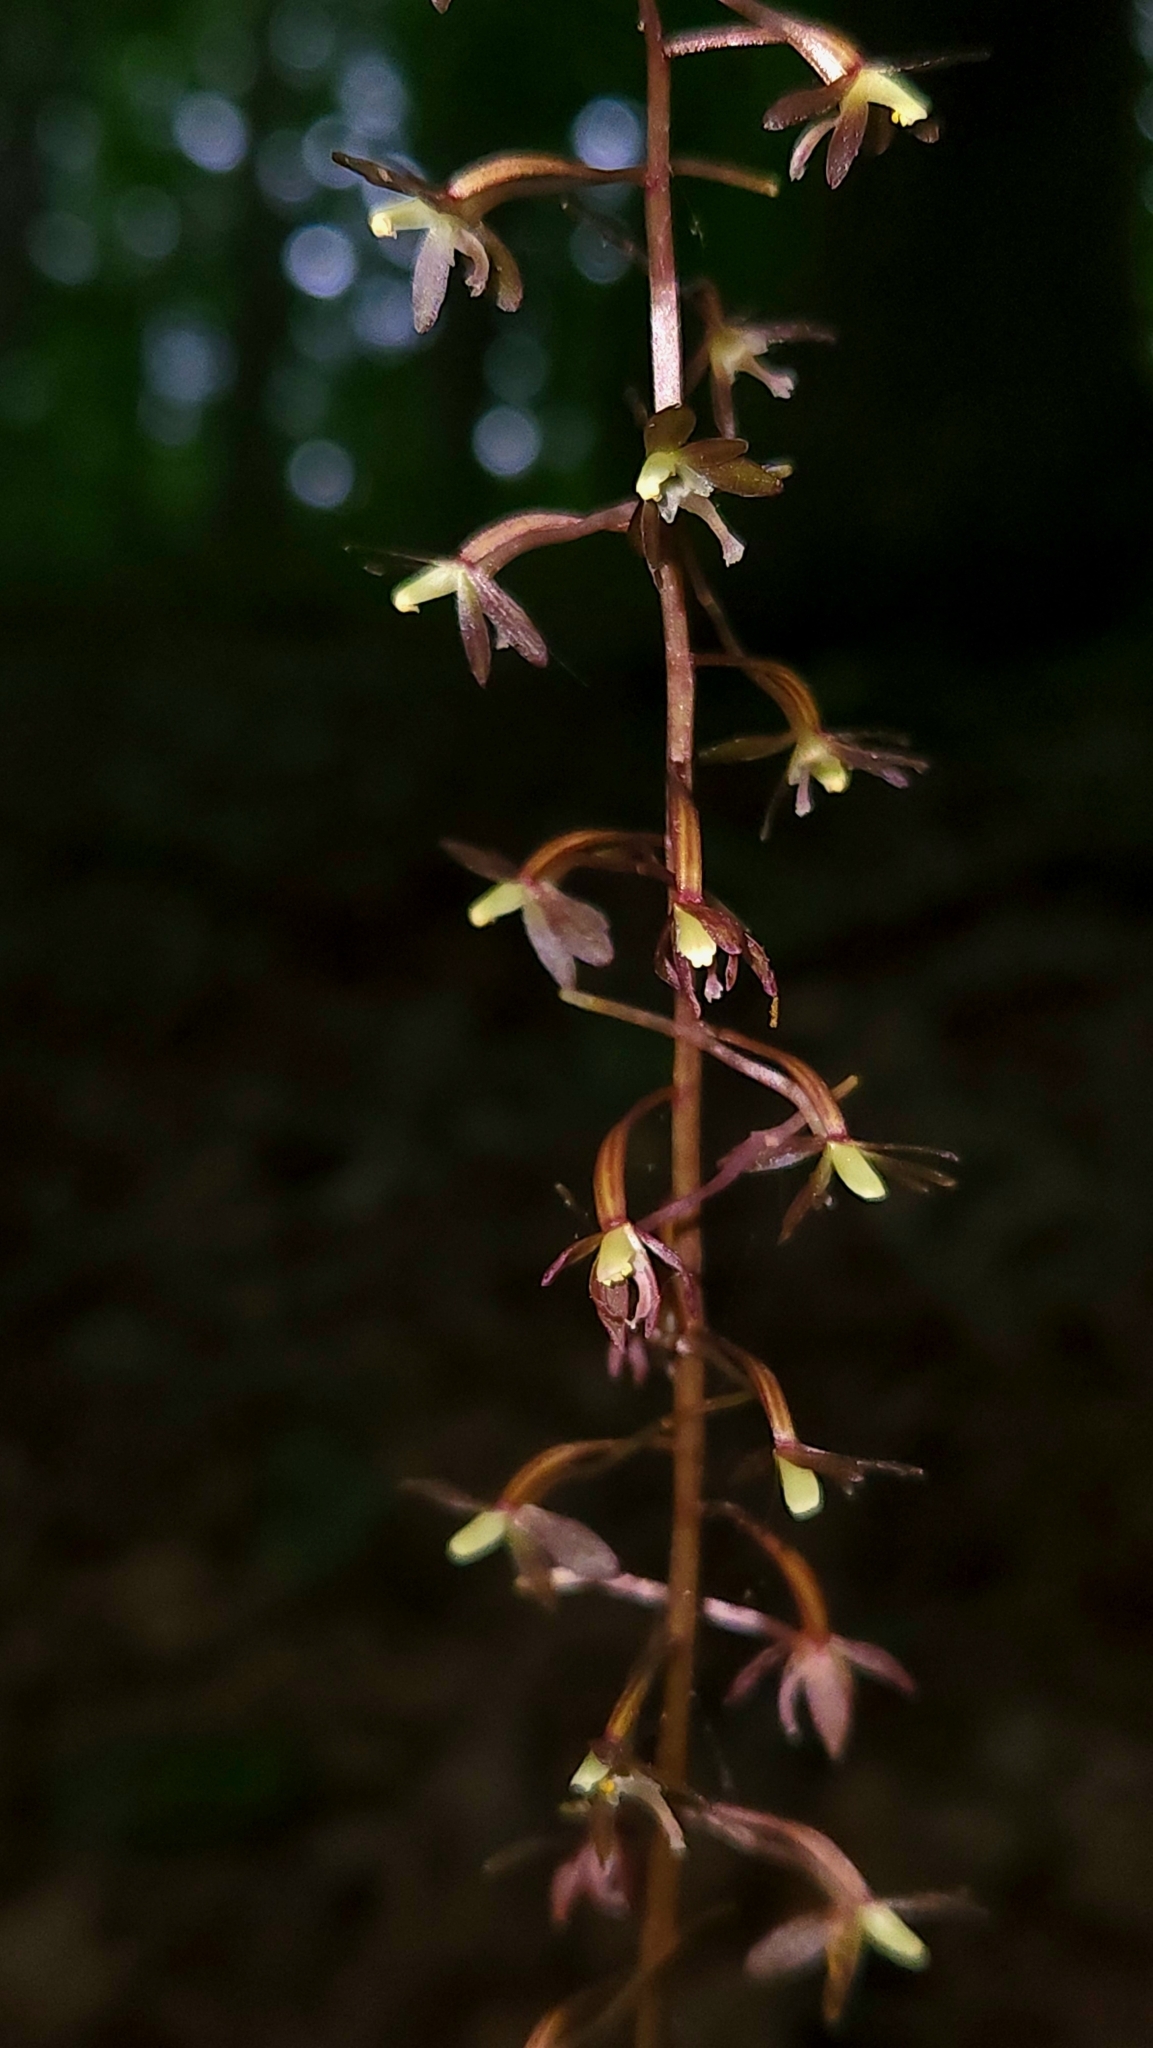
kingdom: Plantae
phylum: Tracheophyta
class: Liliopsida
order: Asparagales
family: Orchidaceae
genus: Tipularia
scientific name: Tipularia discolor
